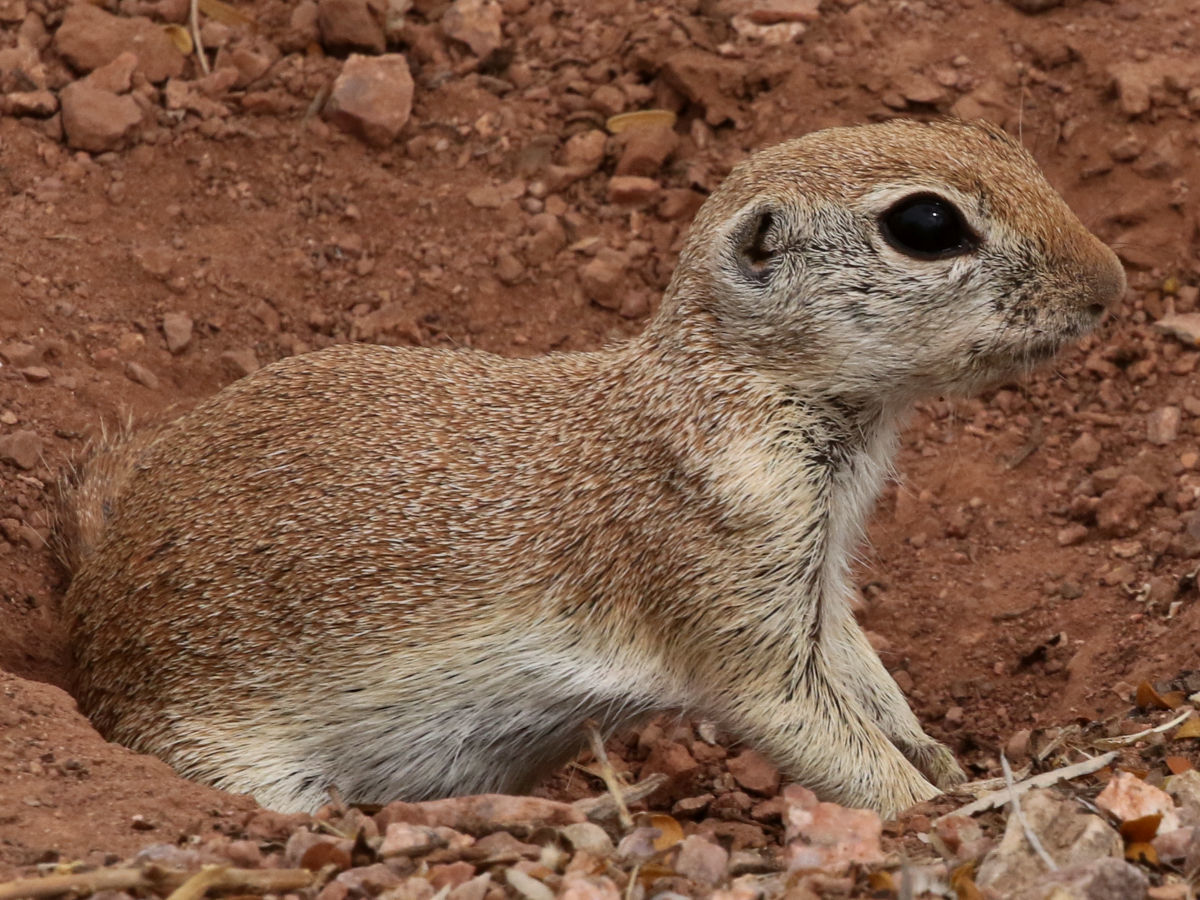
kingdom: Animalia
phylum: Chordata
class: Mammalia
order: Rodentia
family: Sciuridae
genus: Xerospermophilus
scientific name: Xerospermophilus tereticaudus
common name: Round-tailed ground squirrel
